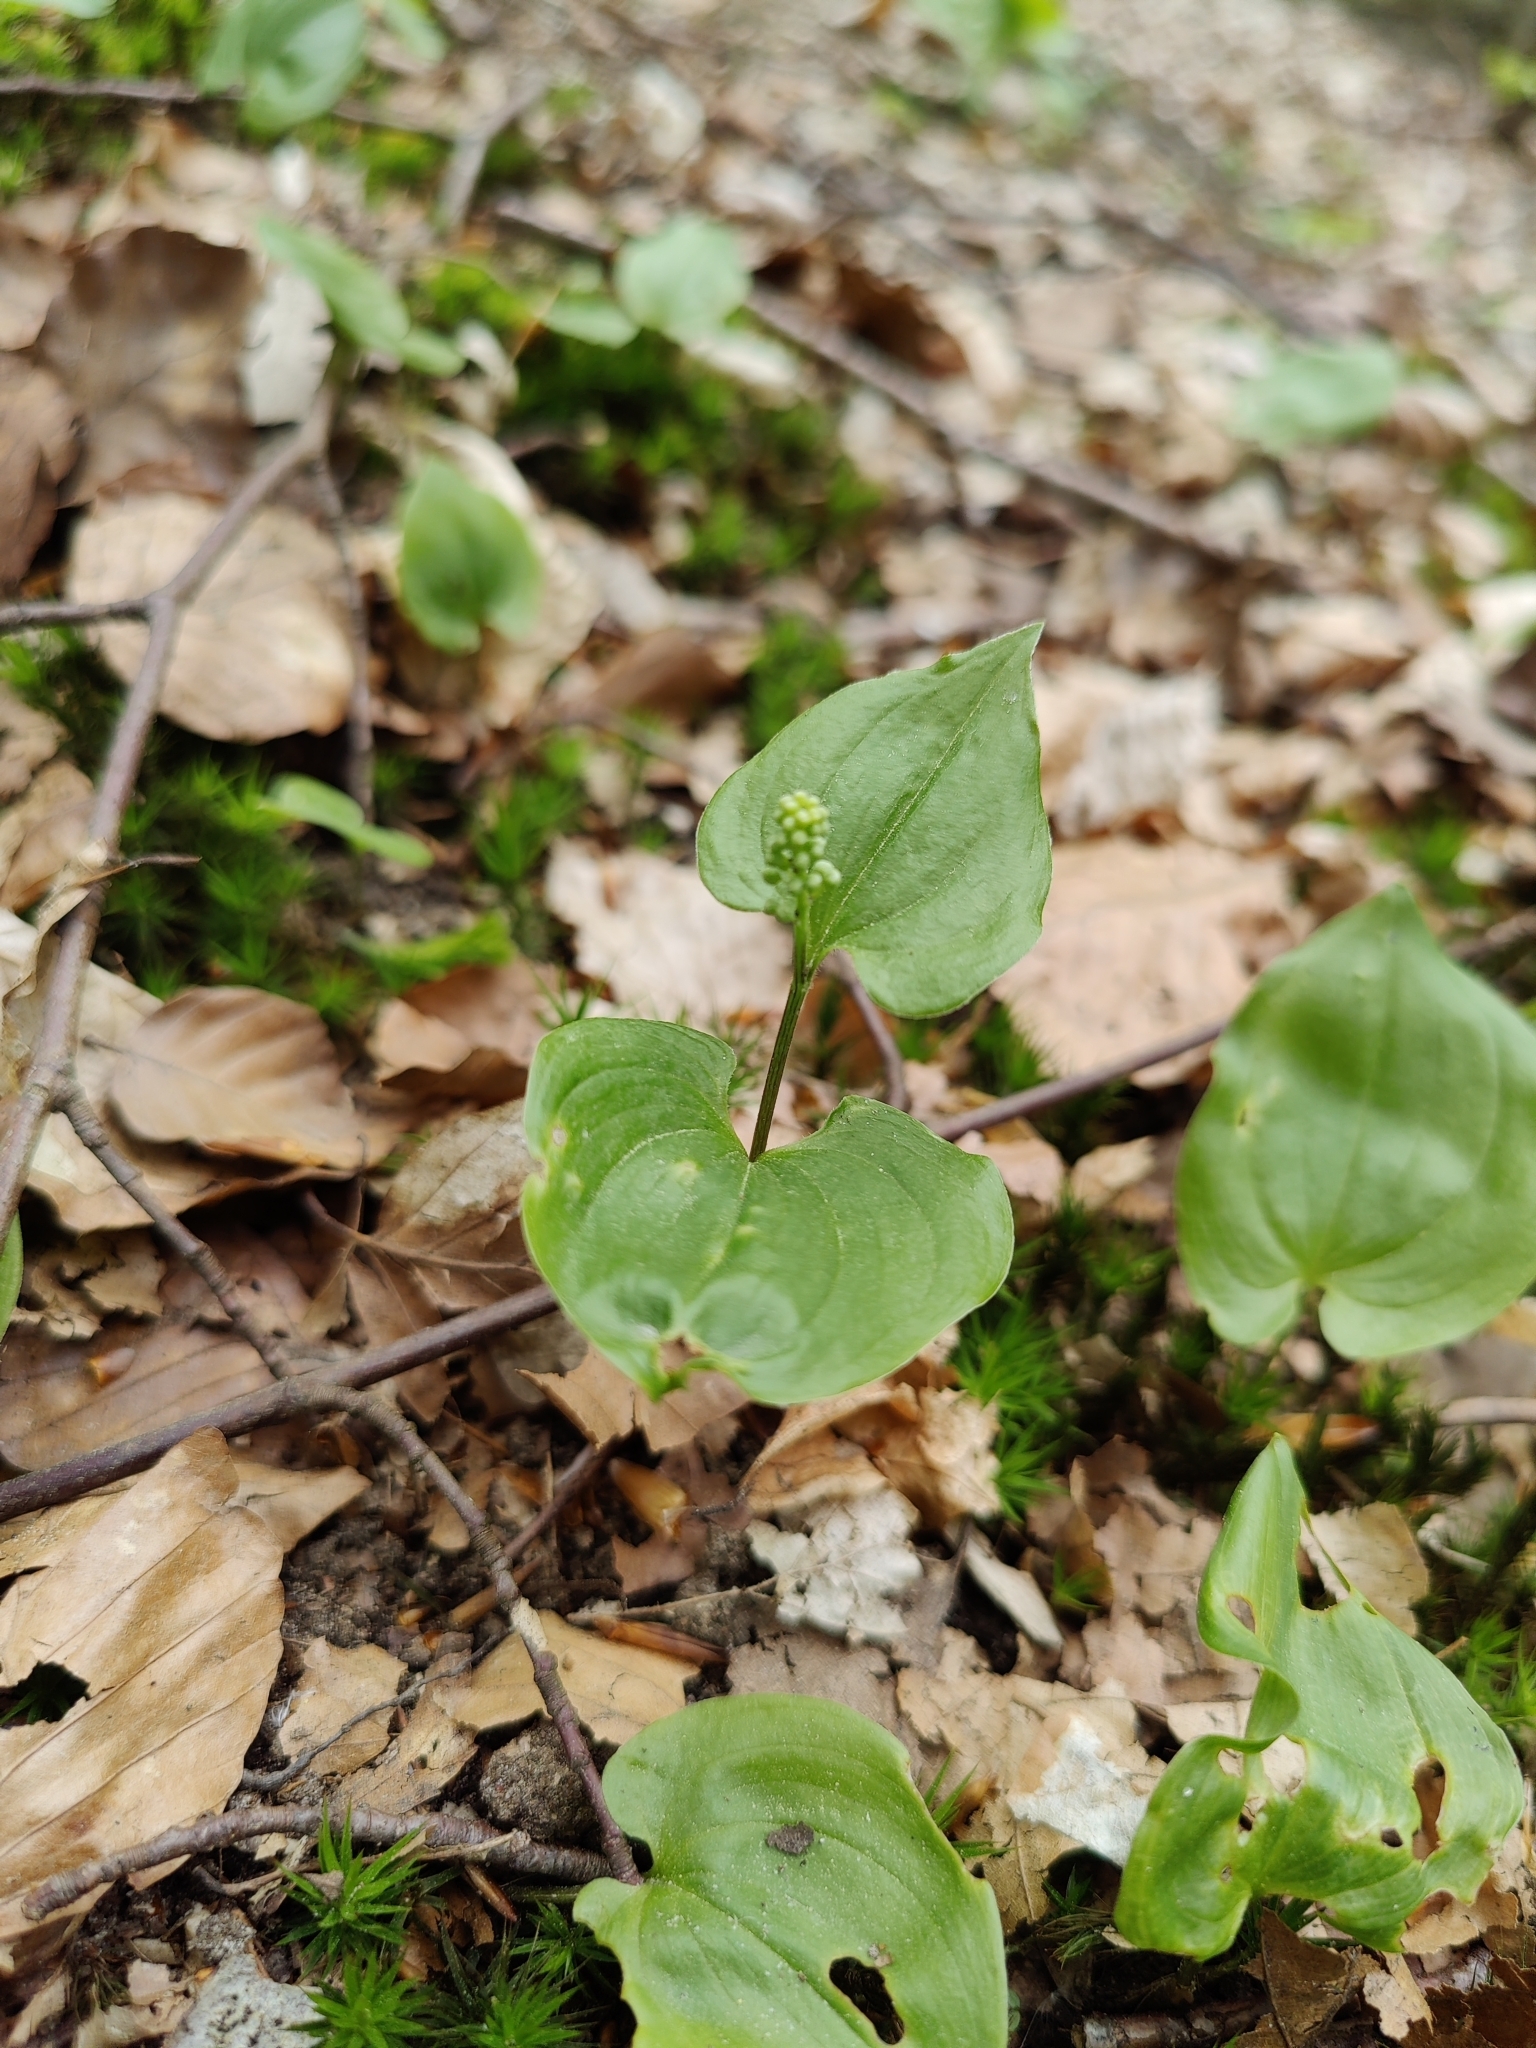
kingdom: Plantae
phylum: Tracheophyta
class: Liliopsida
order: Asparagales
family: Asparagaceae
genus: Maianthemum
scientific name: Maianthemum bifolium
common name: May lily
